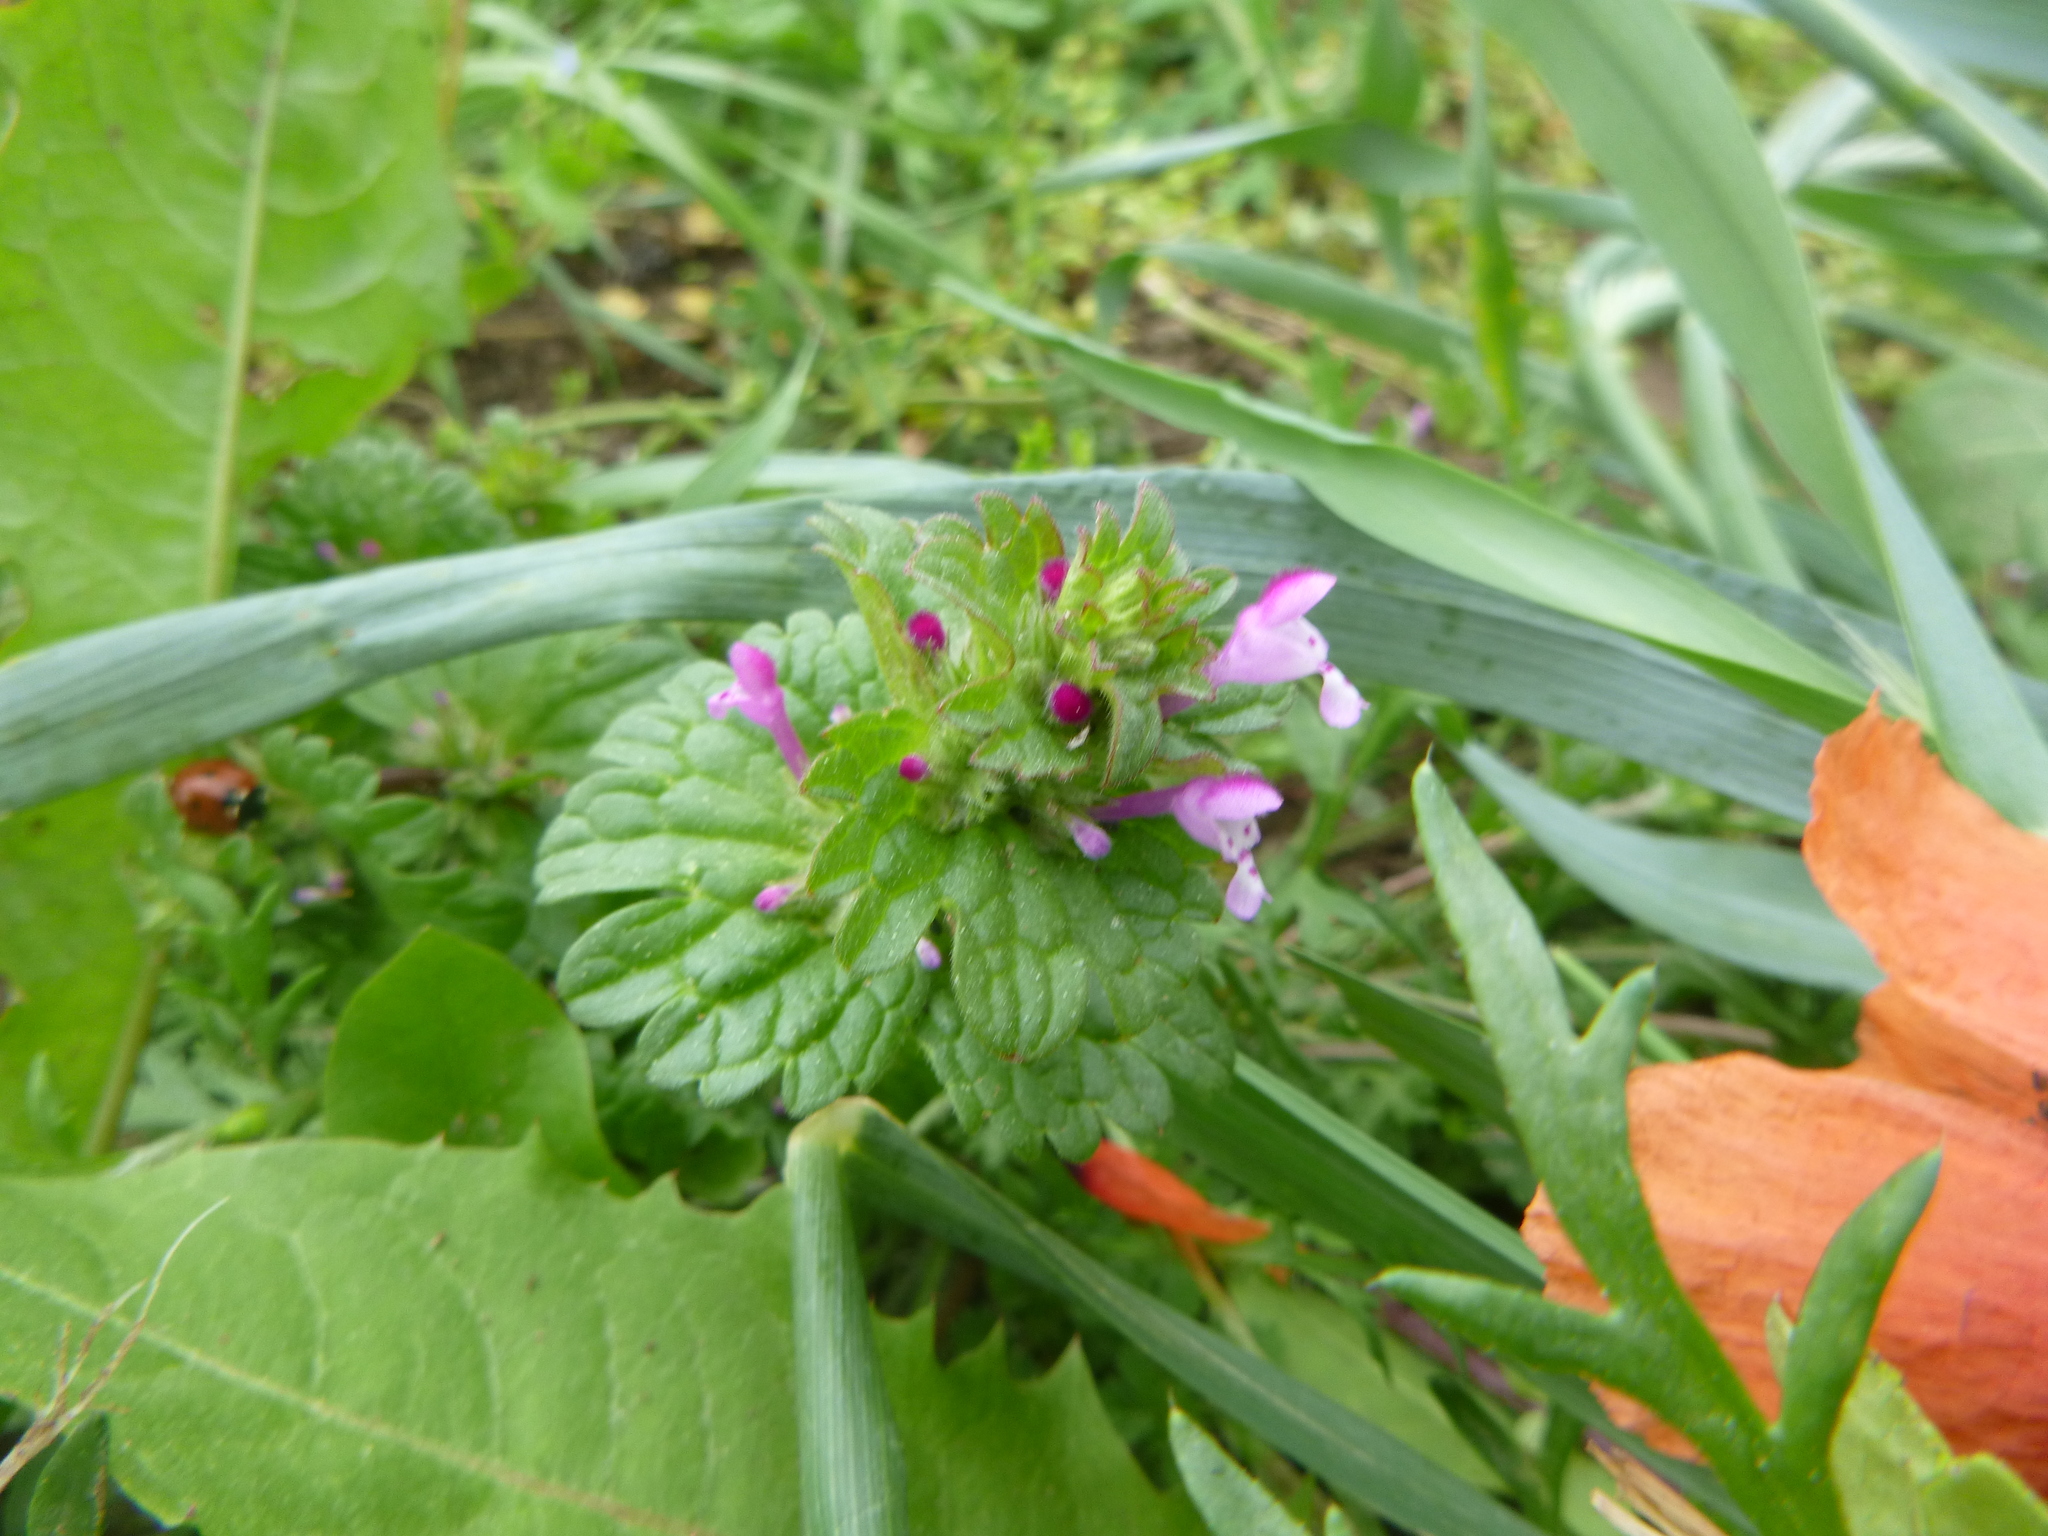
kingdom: Plantae
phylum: Tracheophyta
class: Magnoliopsida
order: Lamiales
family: Lamiaceae
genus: Lamium
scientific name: Lamium amplexicaule
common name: Henbit dead-nettle
